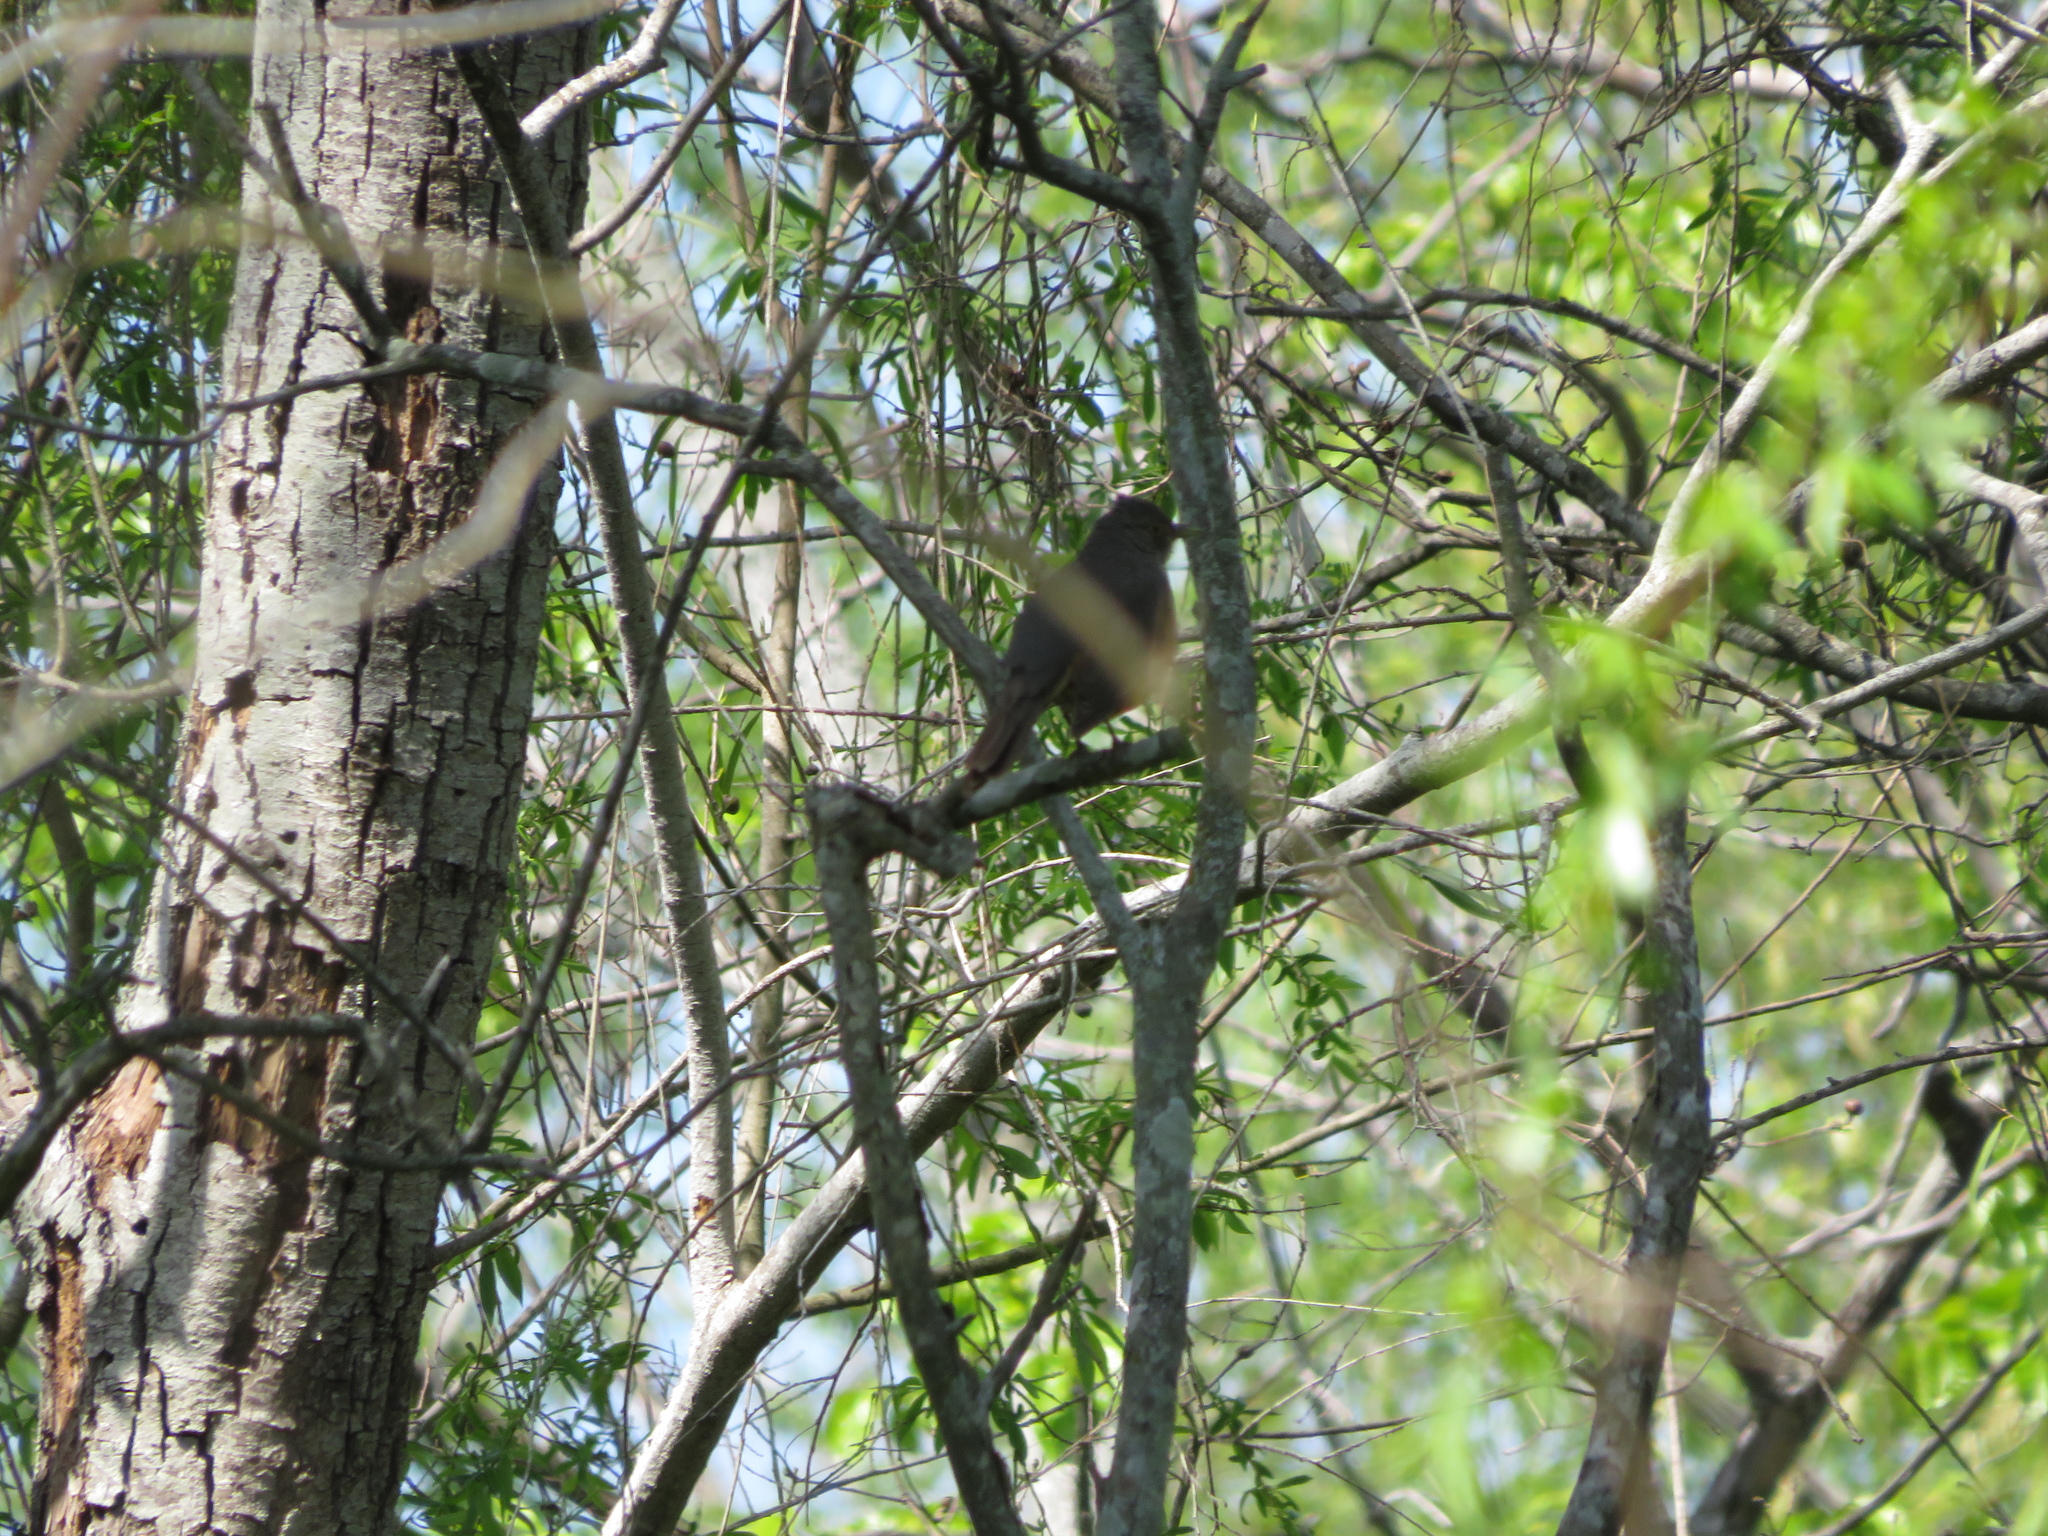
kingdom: Animalia
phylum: Chordata
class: Aves
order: Passeriformes
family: Turdidae
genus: Turdus
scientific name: Turdus rufiventris
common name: Rufous-bellied thrush
